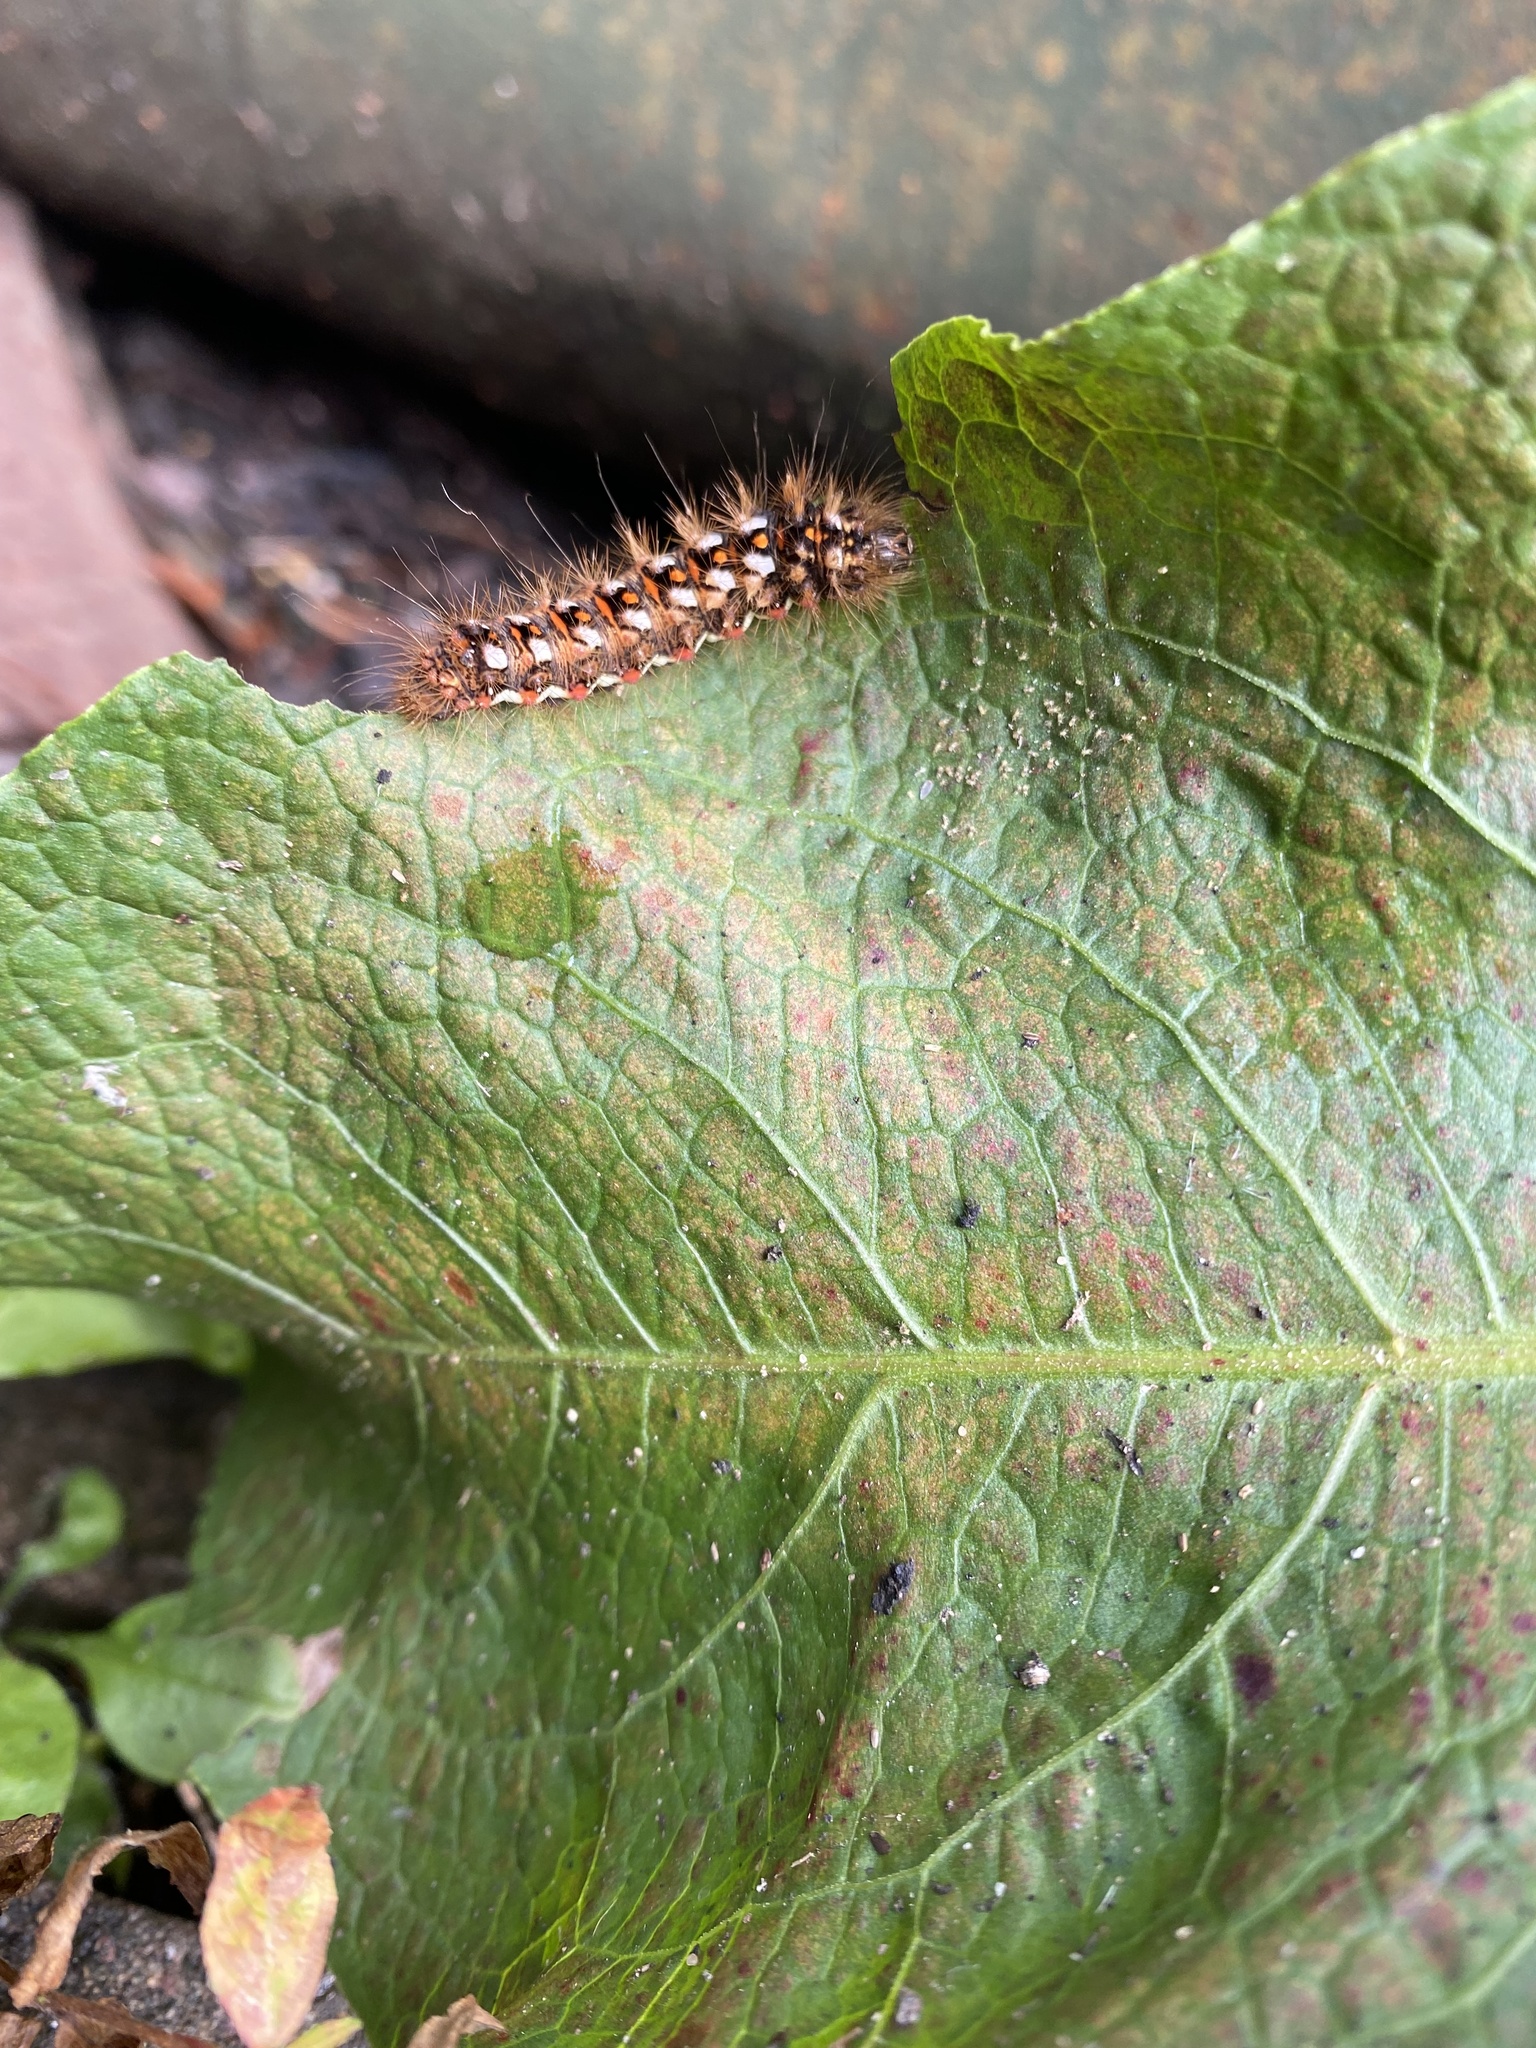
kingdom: Animalia
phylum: Arthropoda
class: Insecta
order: Lepidoptera
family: Noctuidae
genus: Acronicta
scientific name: Acronicta rumicis
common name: Knot grass
